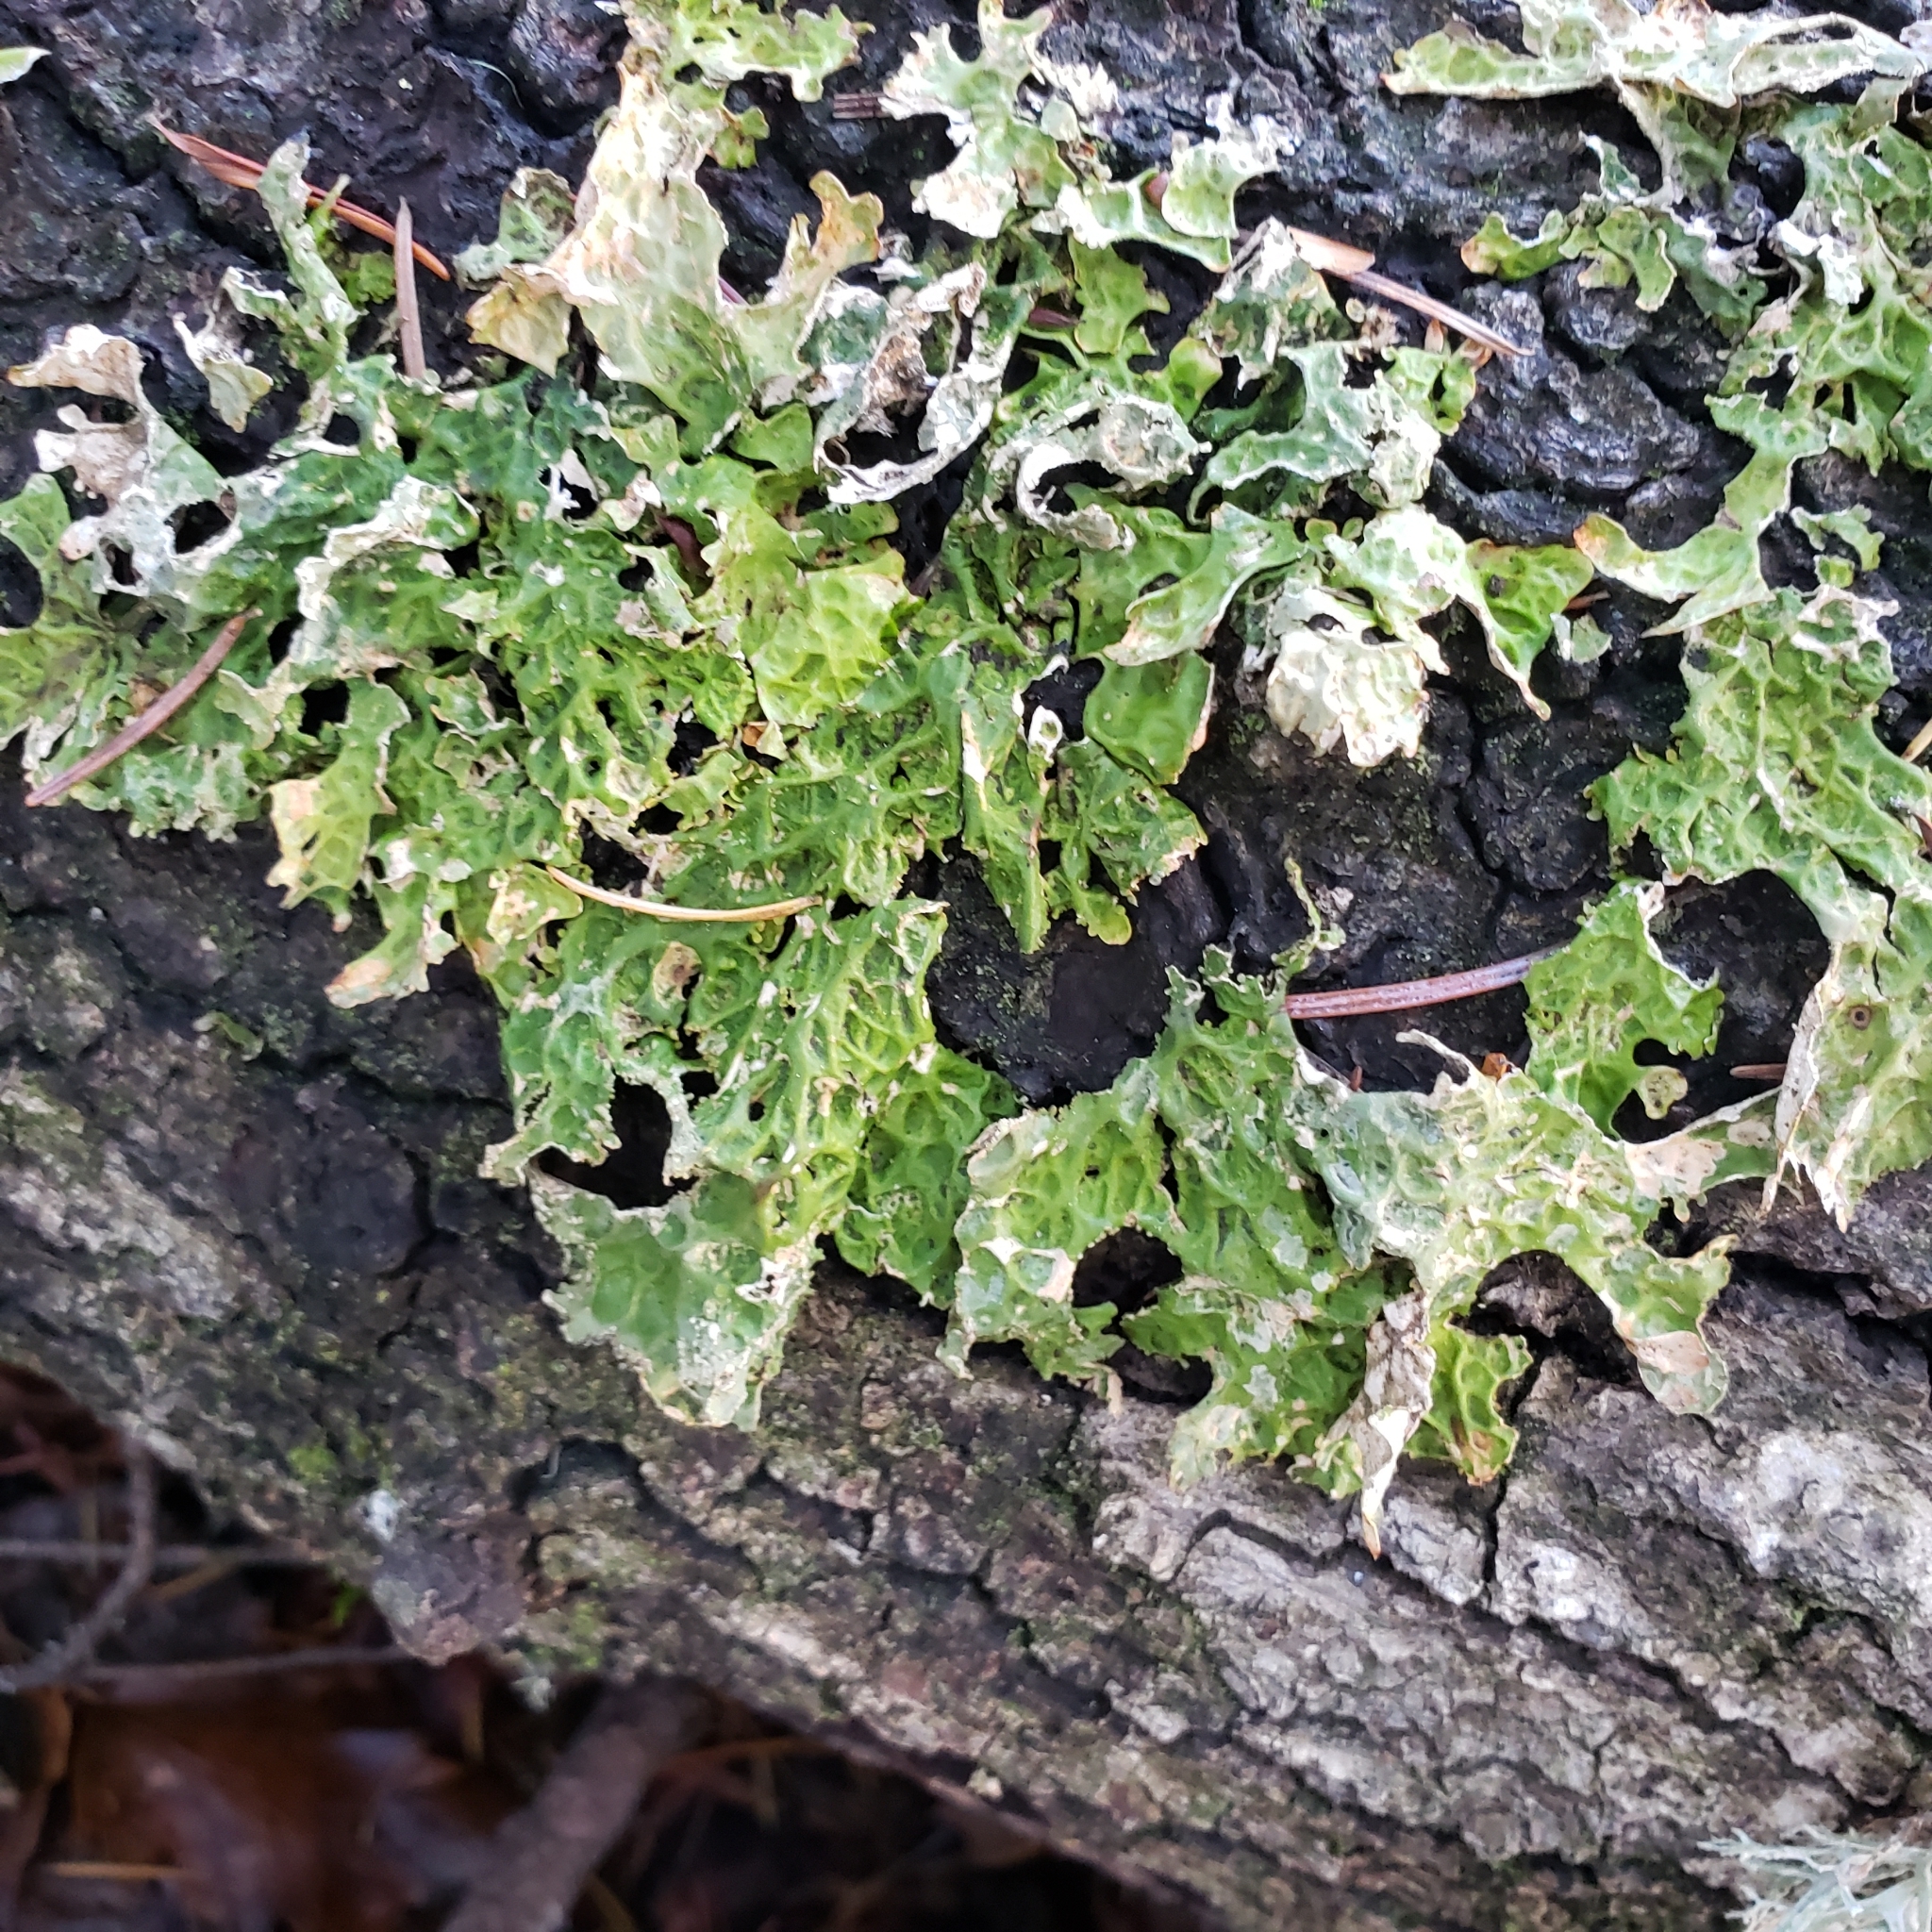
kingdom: Fungi
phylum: Ascomycota
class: Lecanoromycetes
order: Peltigerales
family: Lobariaceae
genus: Lobaria
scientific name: Lobaria pulmonaria
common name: Lungwort
